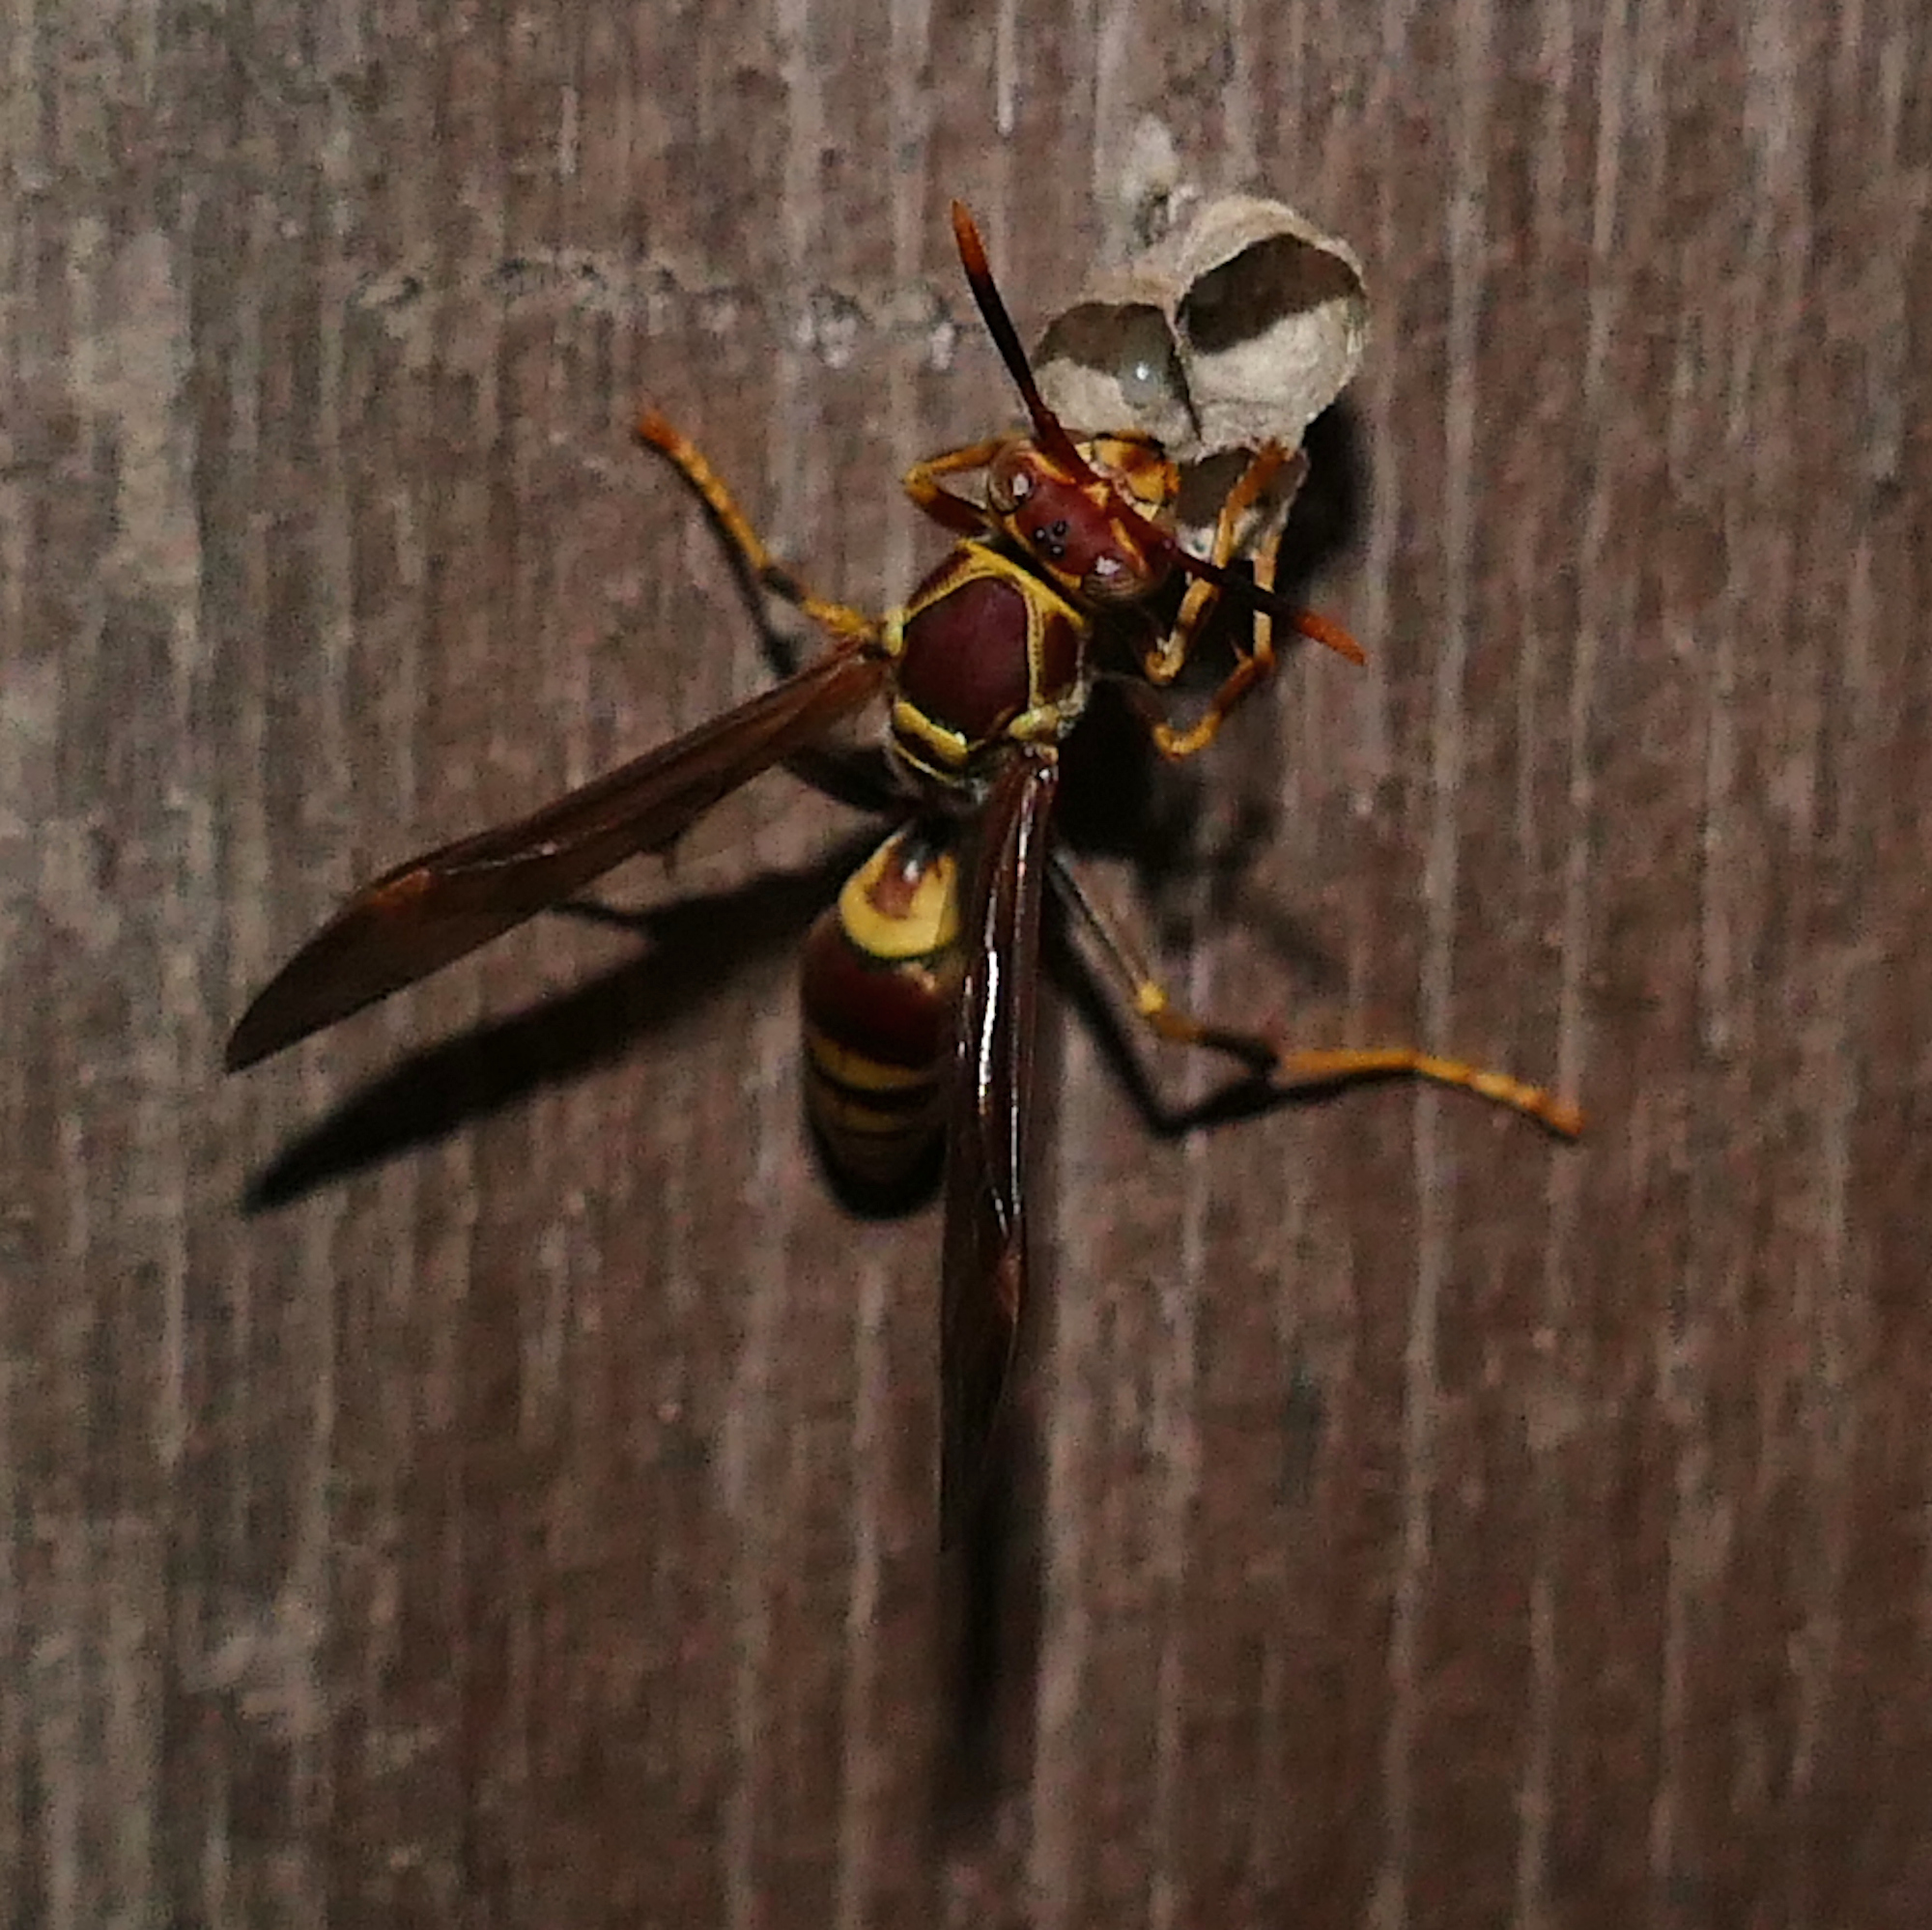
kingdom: Animalia
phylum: Arthropoda
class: Insecta
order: Hymenoptera
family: Eumenidae
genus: Polistes
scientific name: Polistes exclamans
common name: Paper wasp
